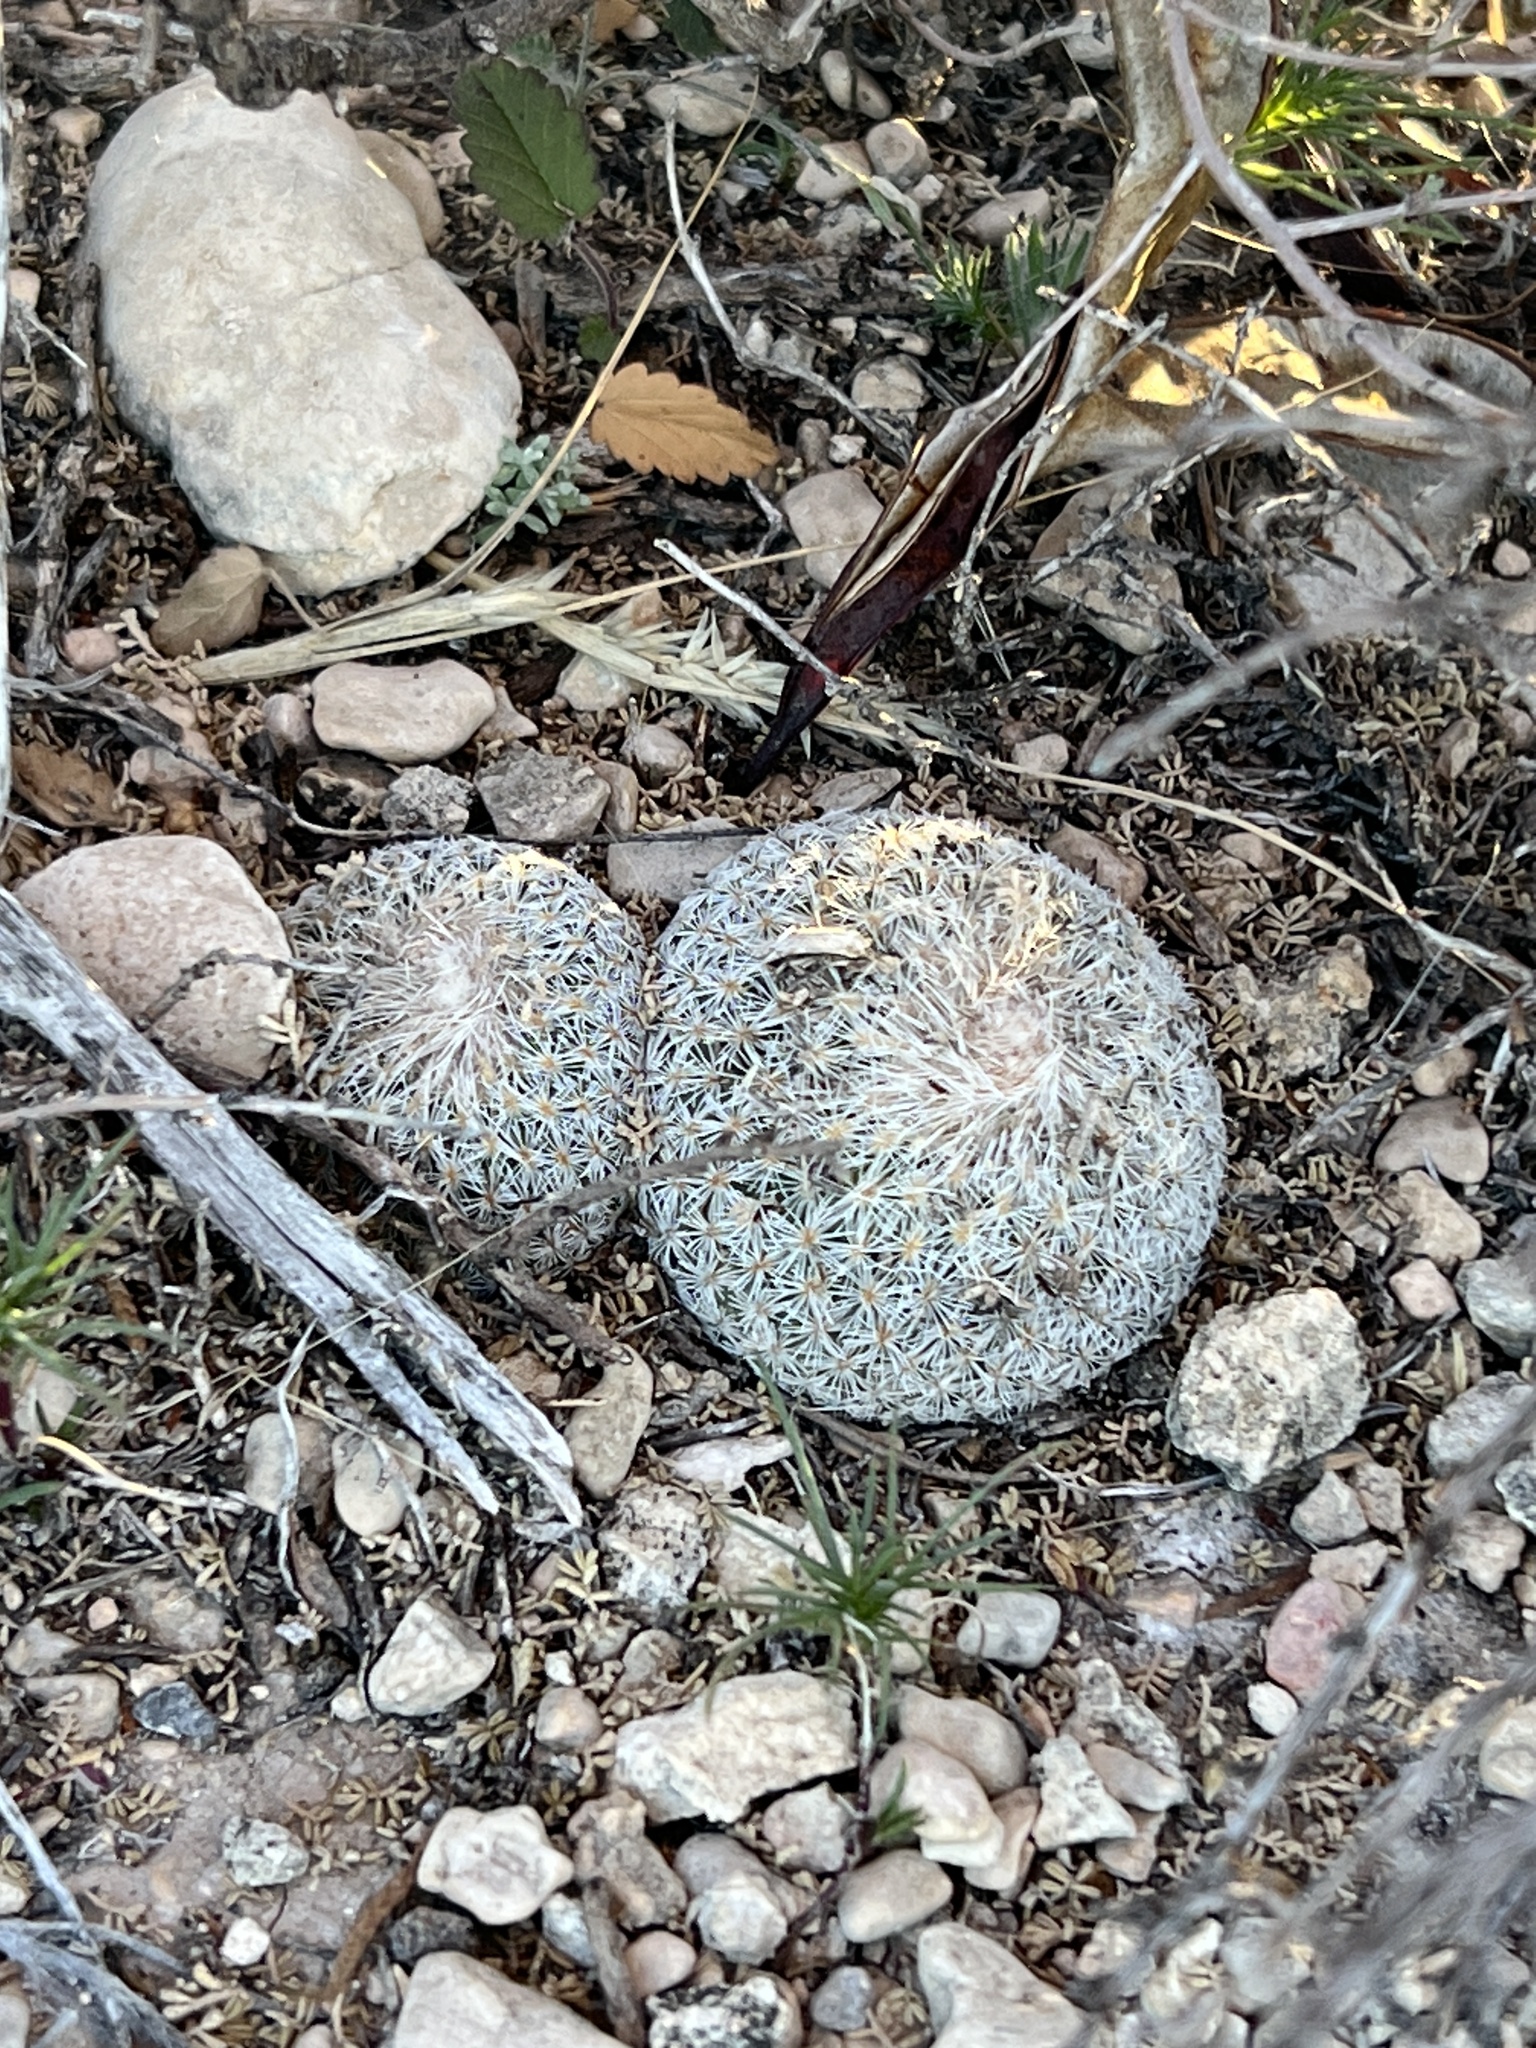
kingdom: Plantae
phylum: Tracheophyta
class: Magnoliopsida
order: Caryophyllales
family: Cactaceae
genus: Epithelantha
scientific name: Epithelantha micromeris
